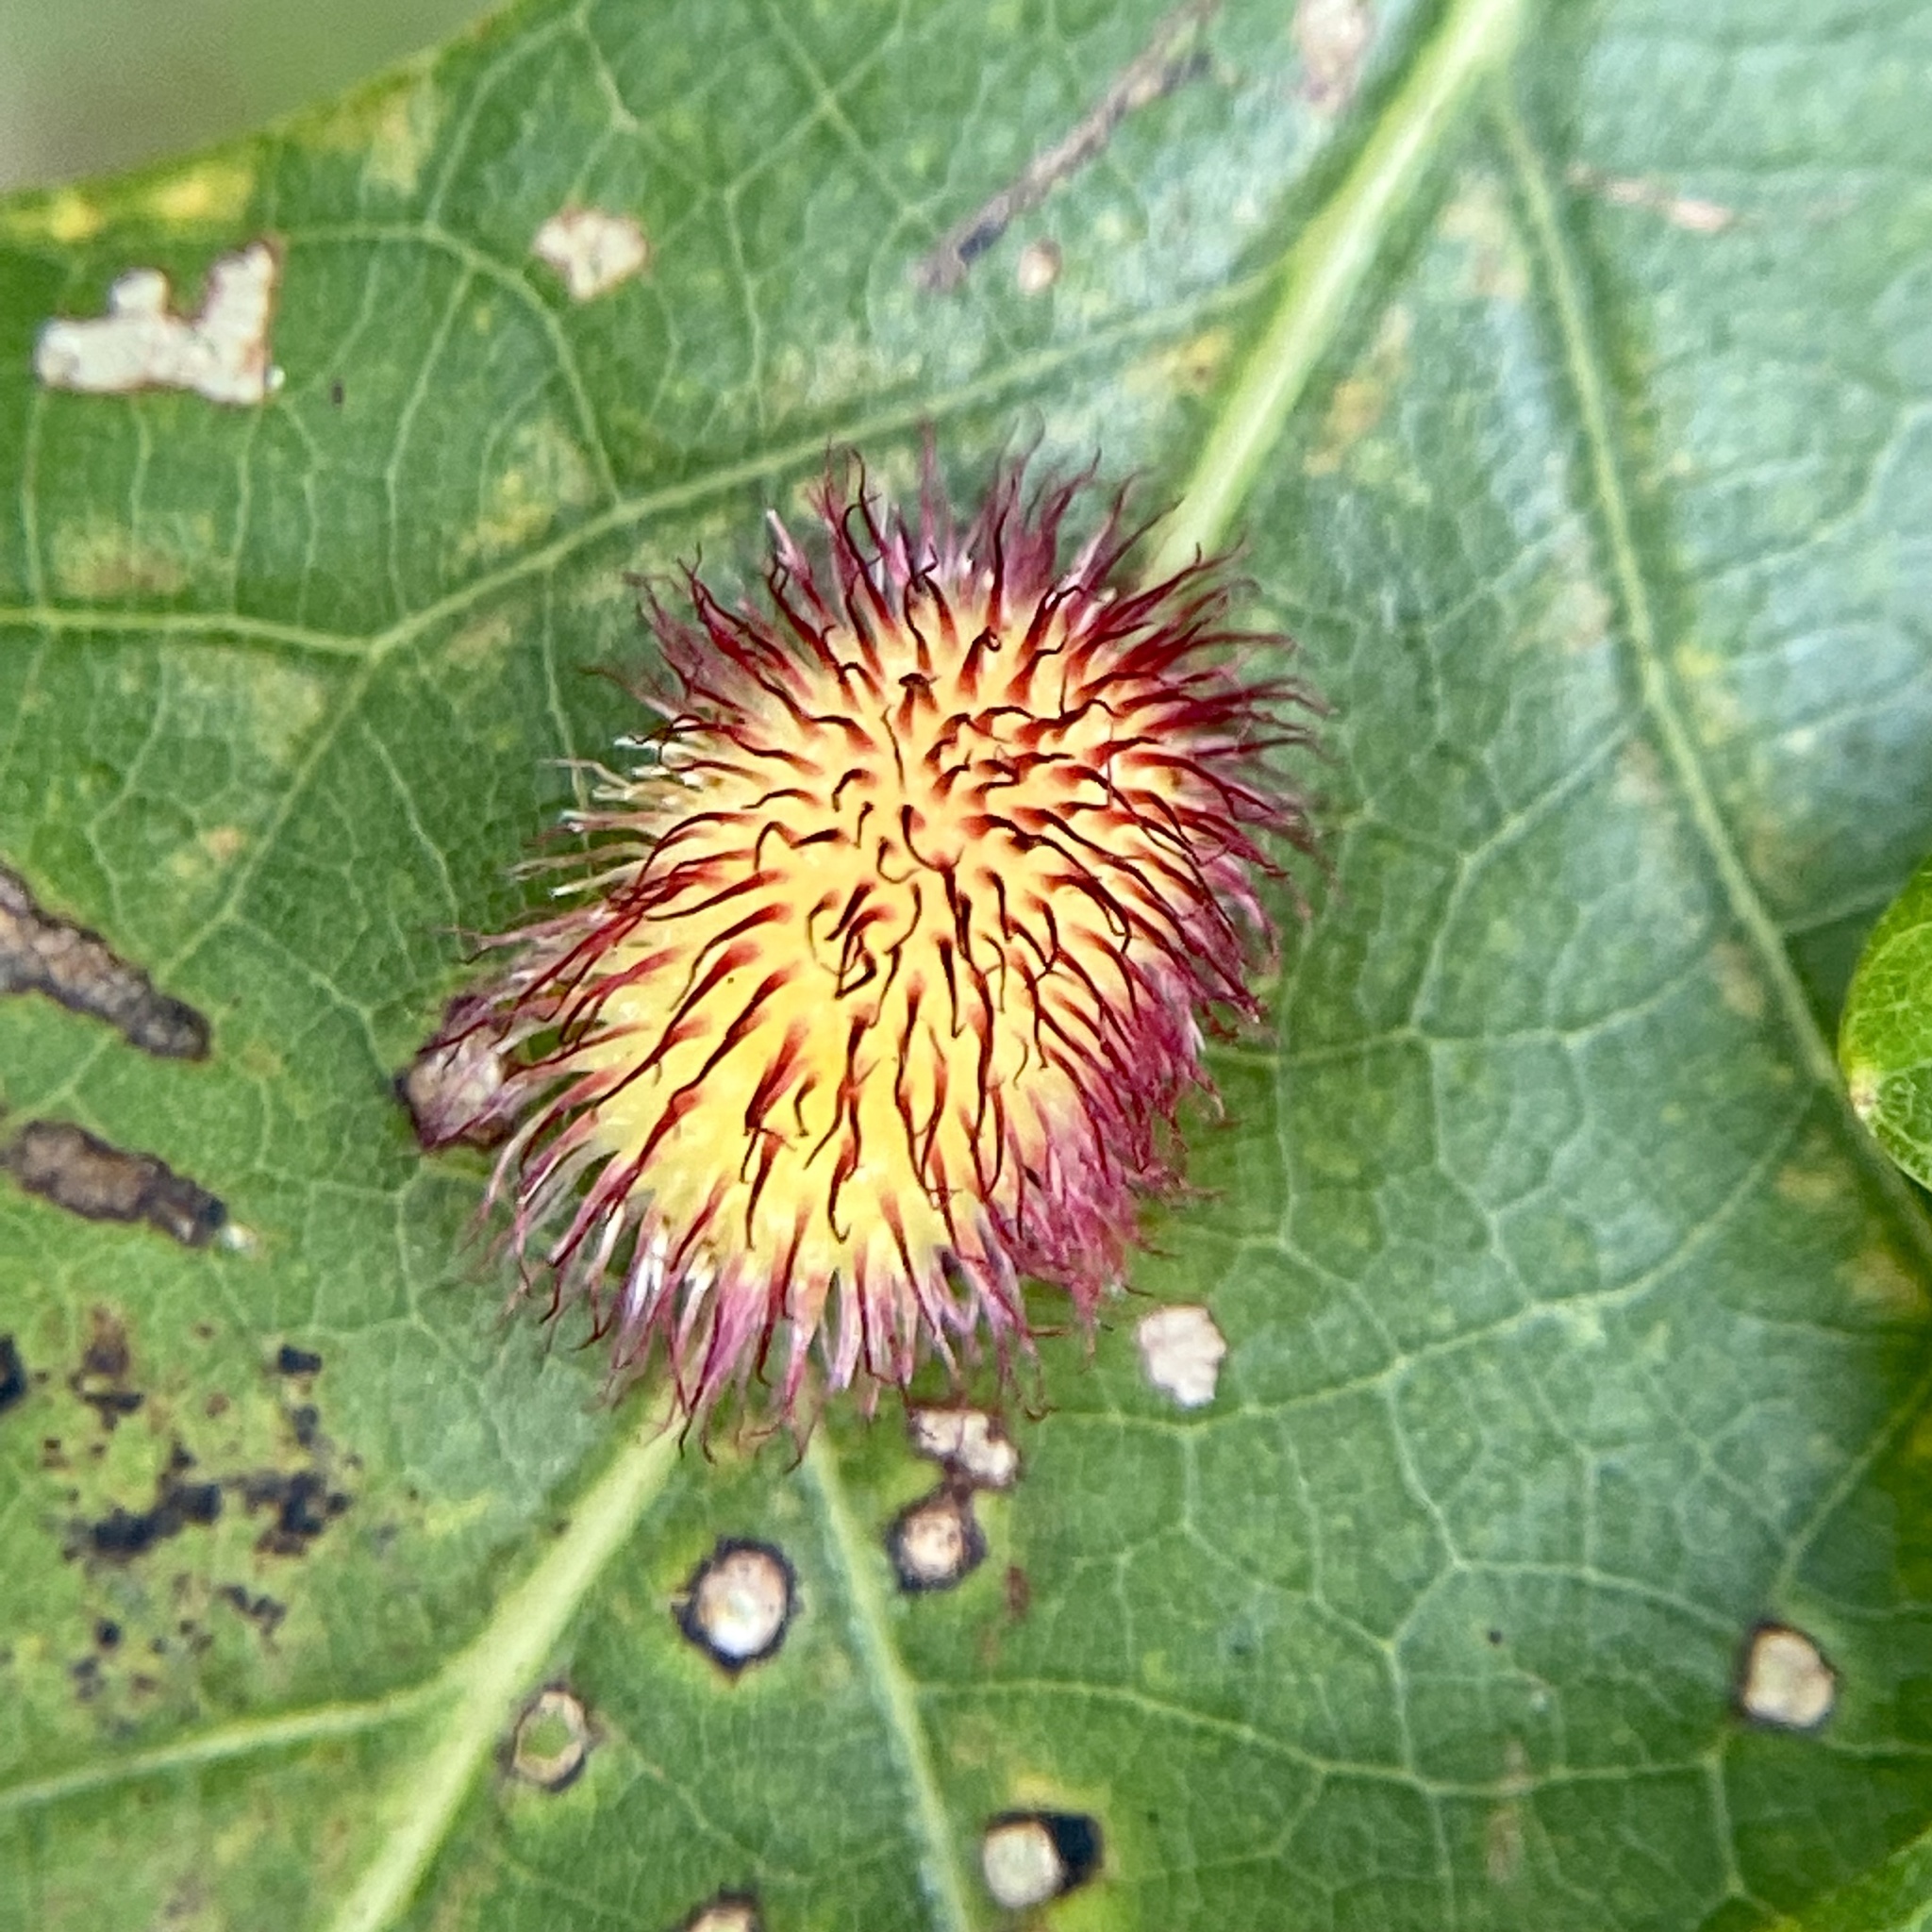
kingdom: Animalia
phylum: Arthropoda
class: Insecta
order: Hymenoptera
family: Cynipidae
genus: Acraspis
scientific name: Acraspis erinacei
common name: Hedgehog gall wasp
